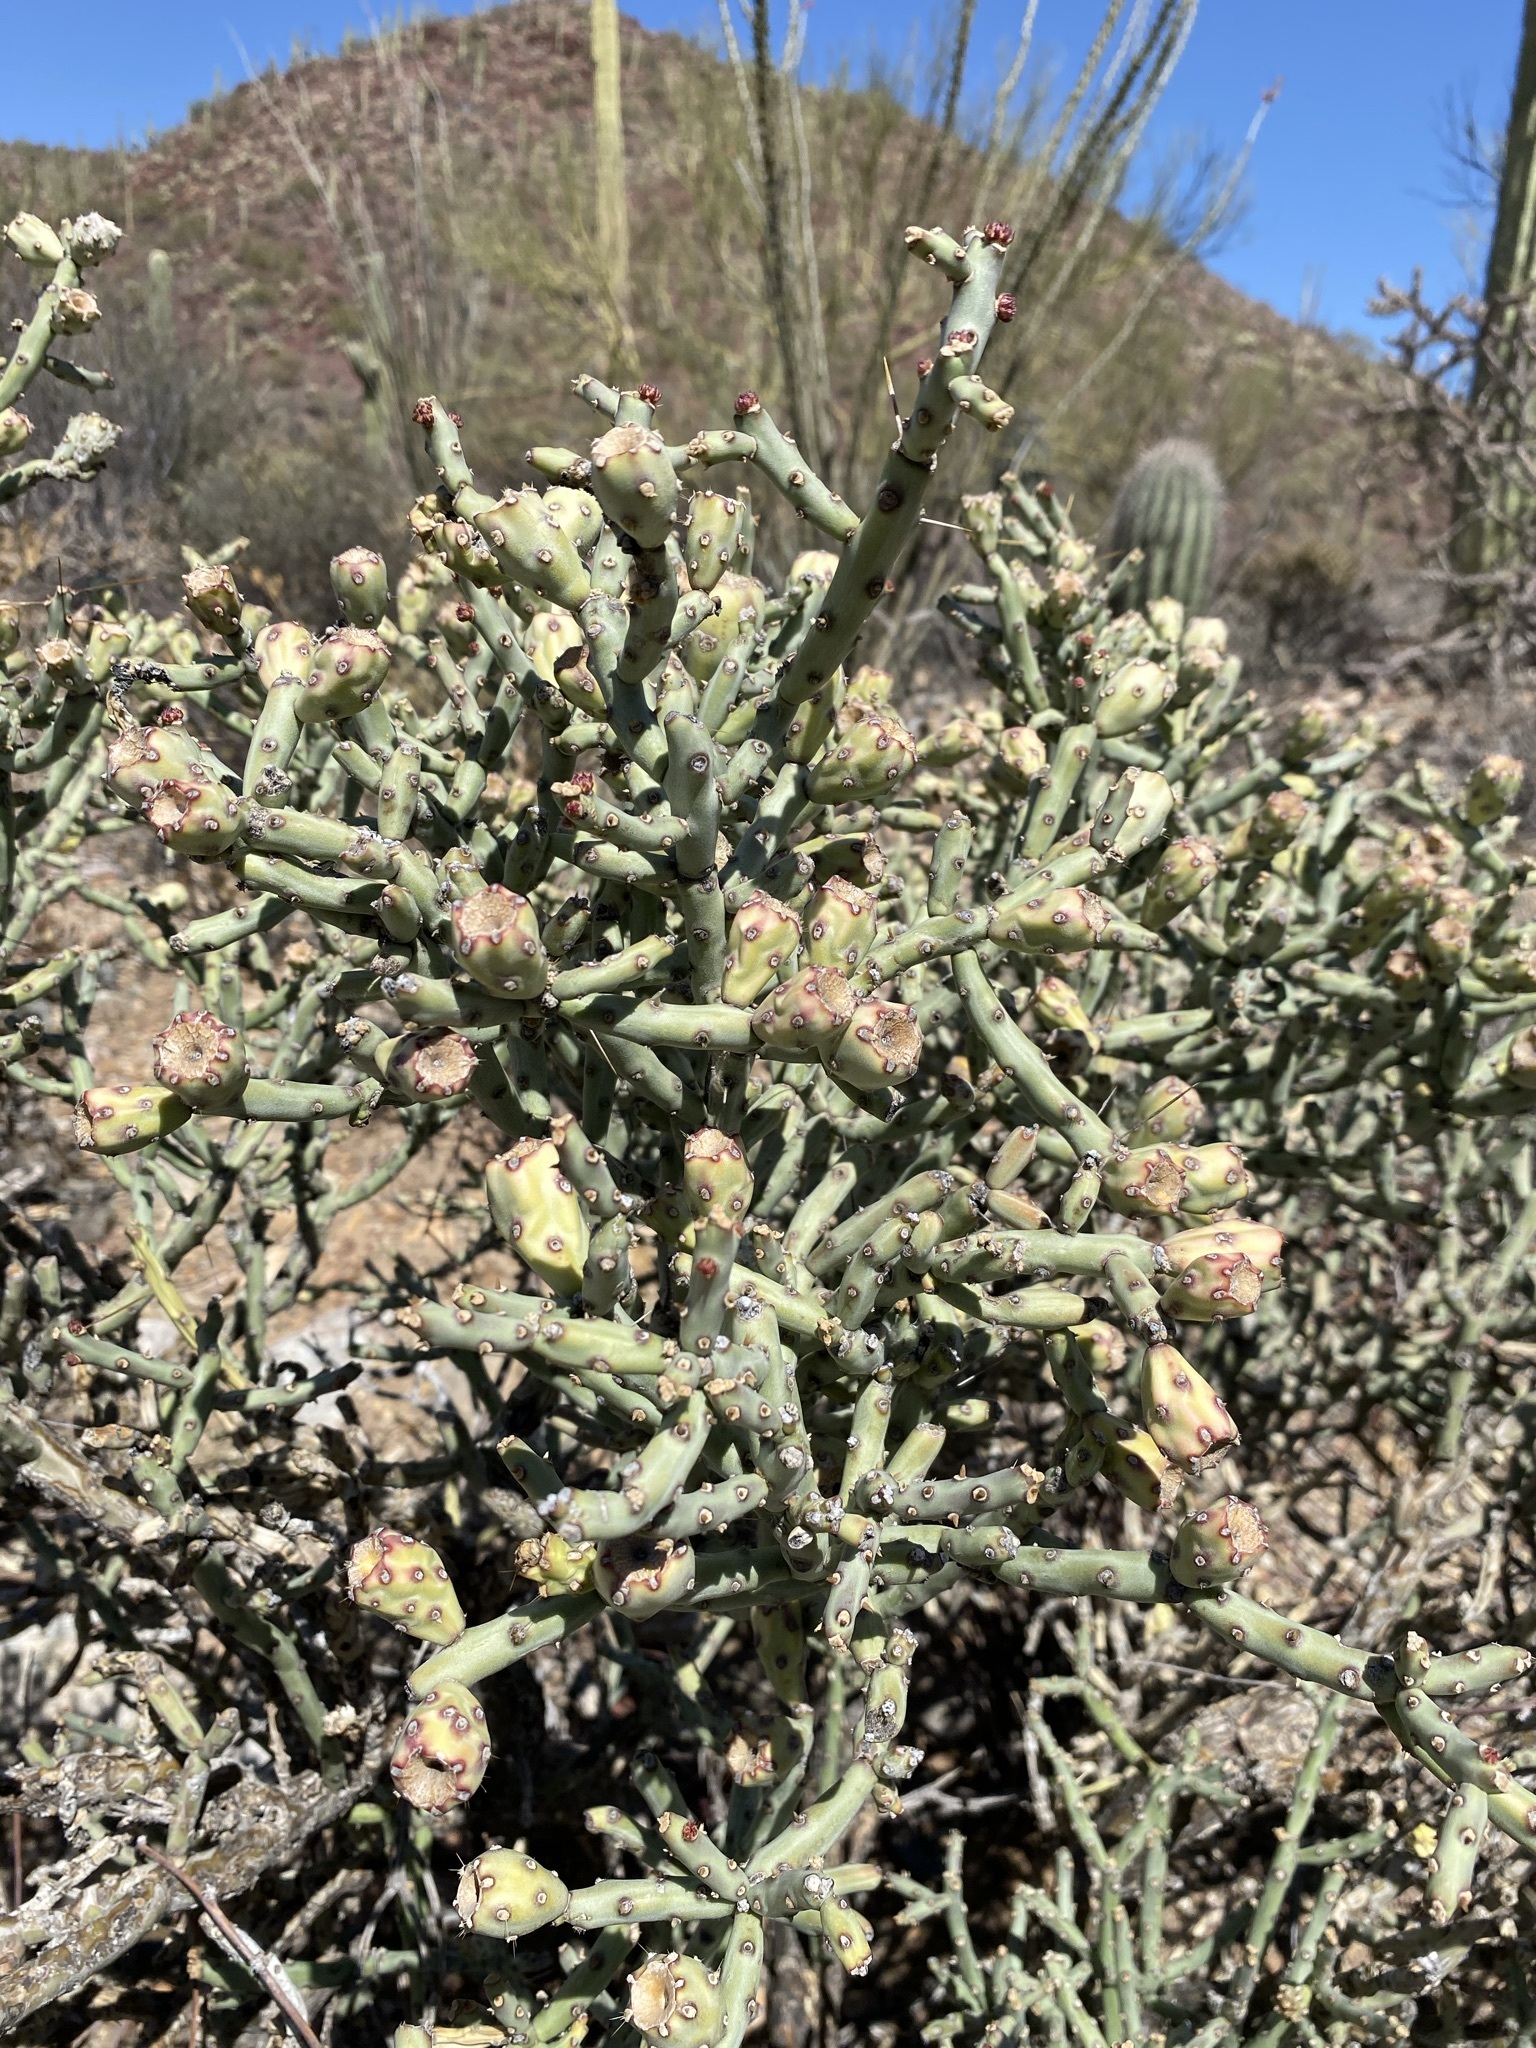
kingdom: Plantae
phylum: Tracheophyta
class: Magnoliopsida
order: Caryophyllales
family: Cactaceae
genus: Cylindropuntia
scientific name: Cylindropuntia arbuscula
